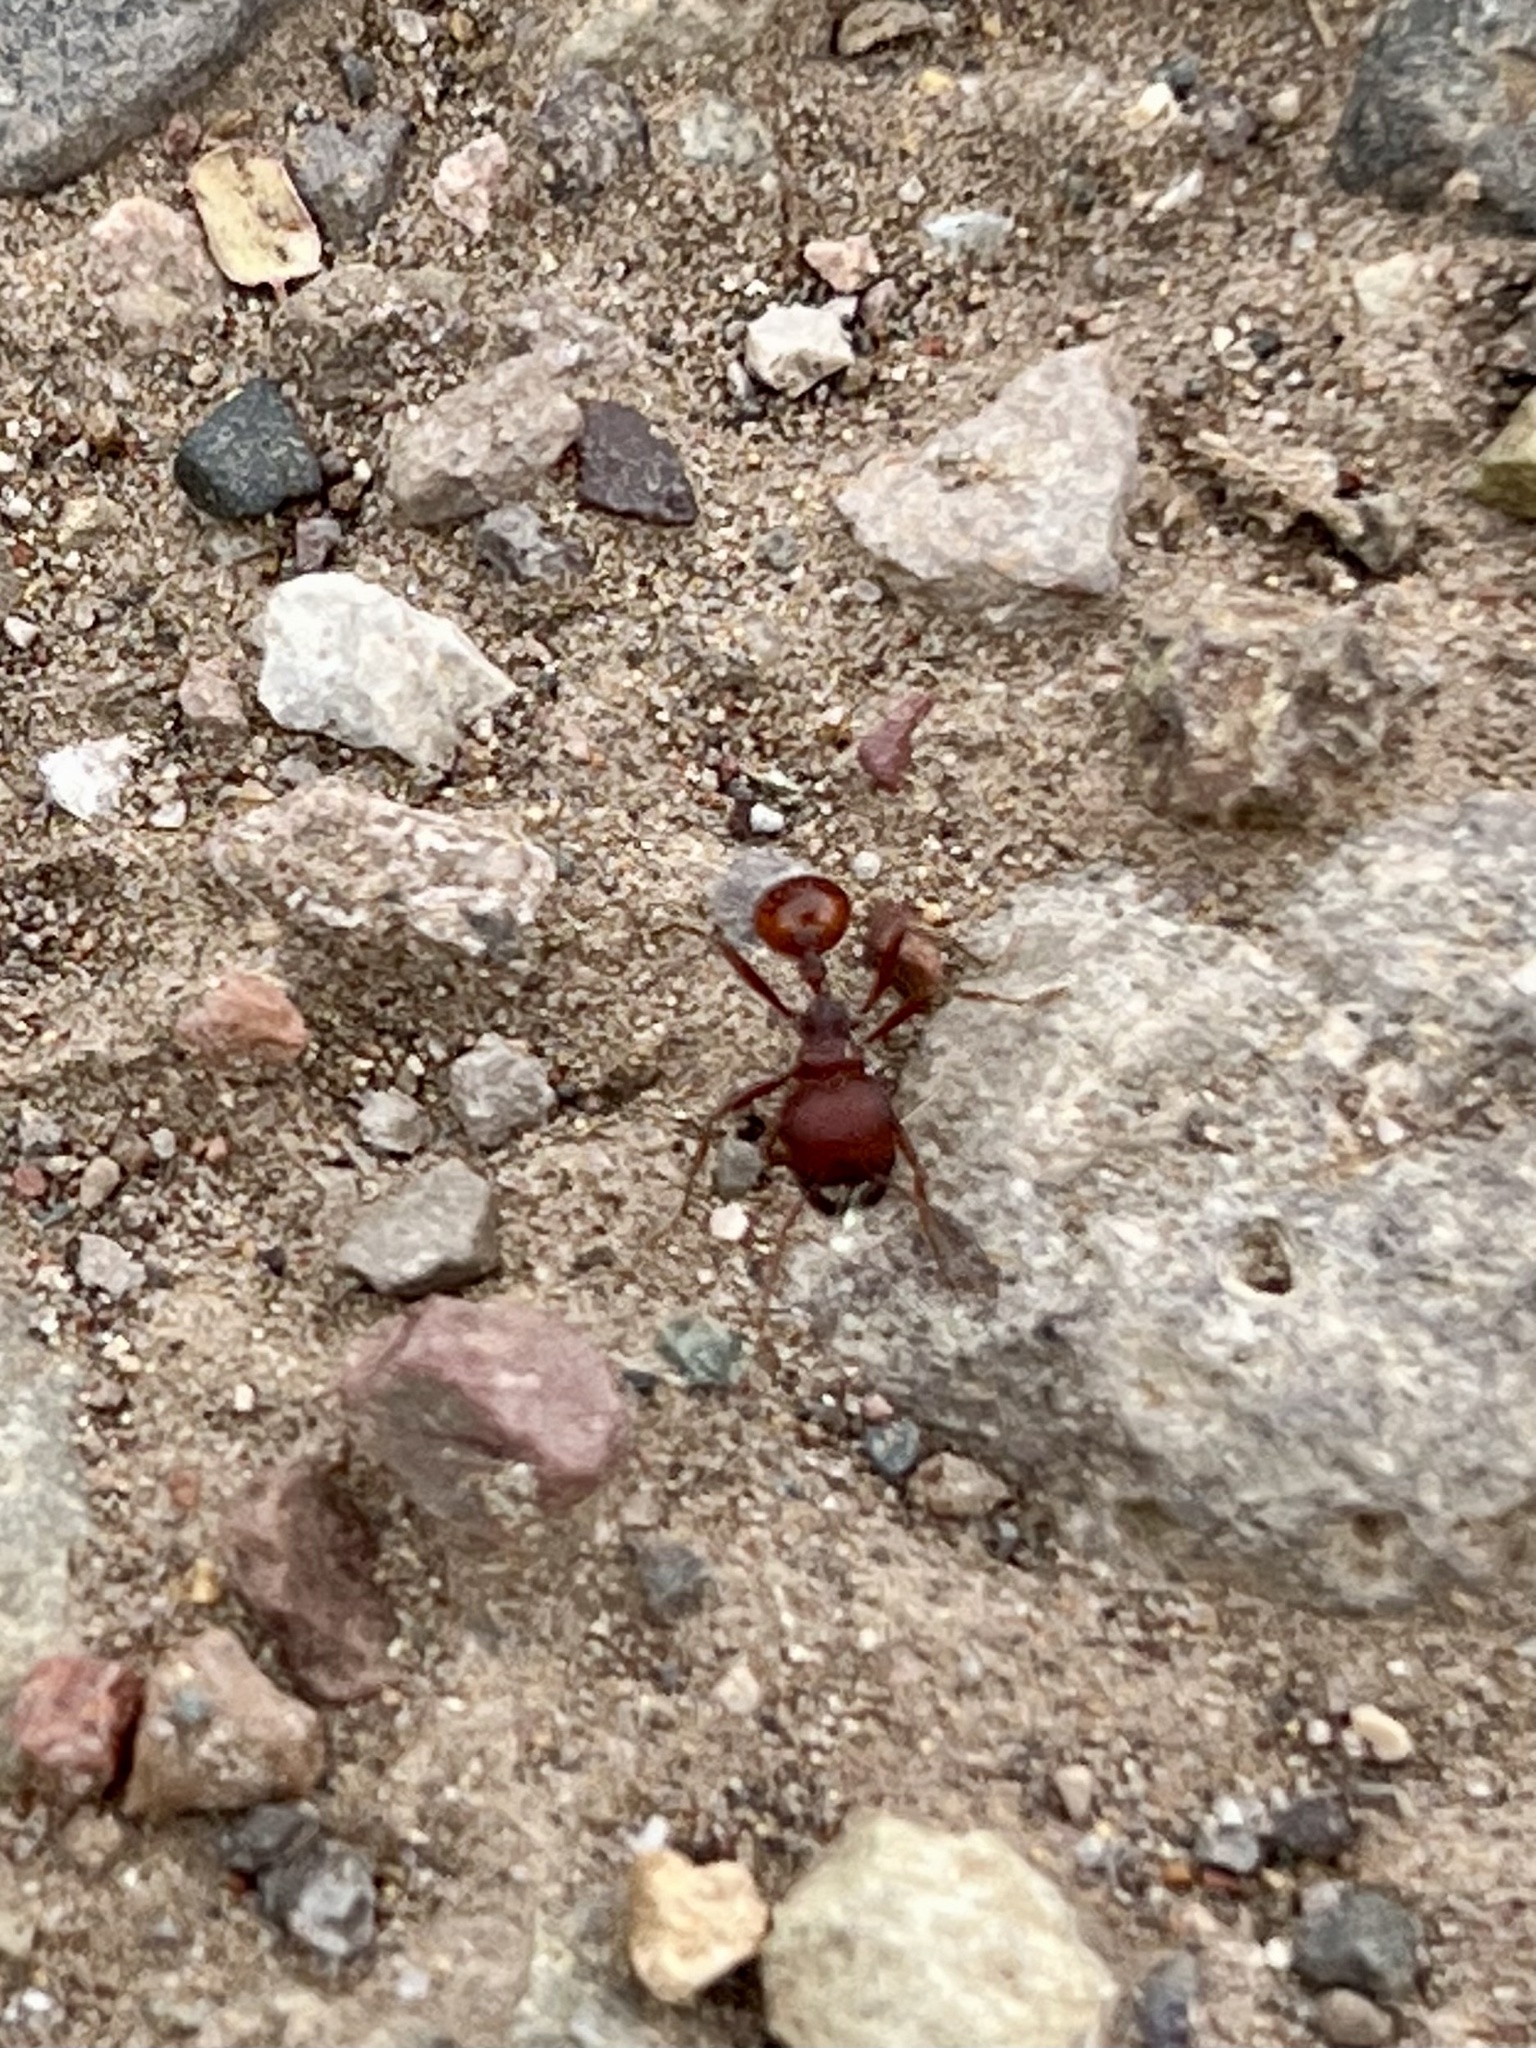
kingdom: Animalia
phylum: Arthropoda
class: Insecta
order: Hymenoptera
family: Formicidae
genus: Pogonomyrmex
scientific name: Pogonomyrmex barbatus
